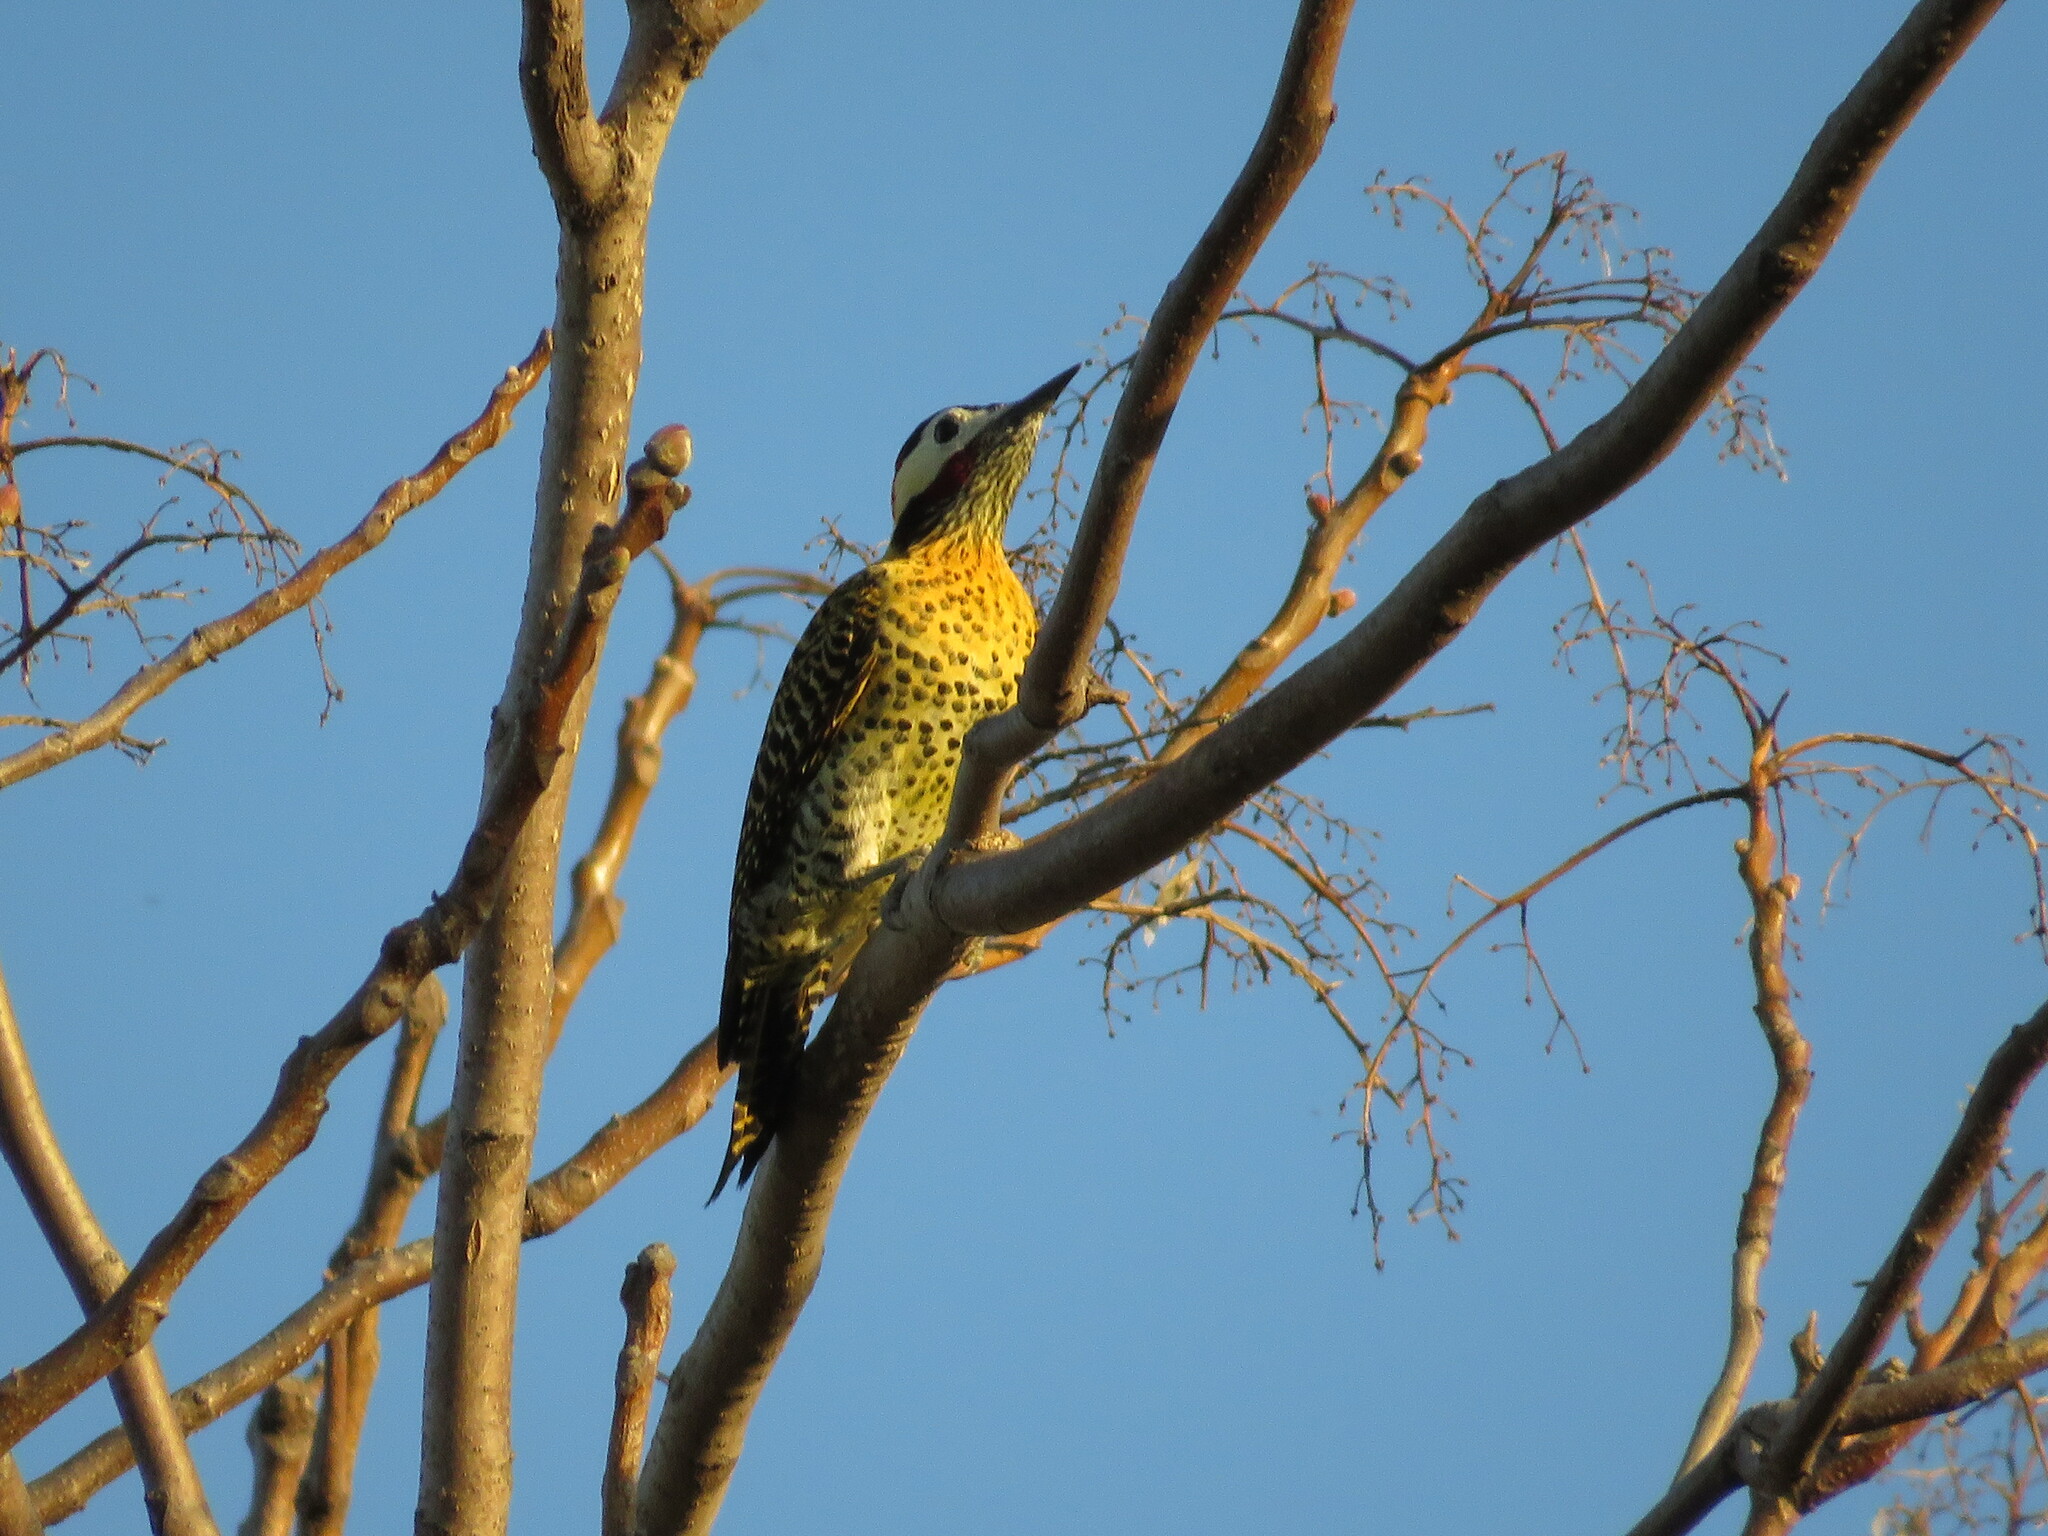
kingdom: Animalia
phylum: Chordata
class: Aves
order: Piciformes
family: Picidae
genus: Colaptes
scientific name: Colaptes melanochloros
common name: Green-barred woodpecker
